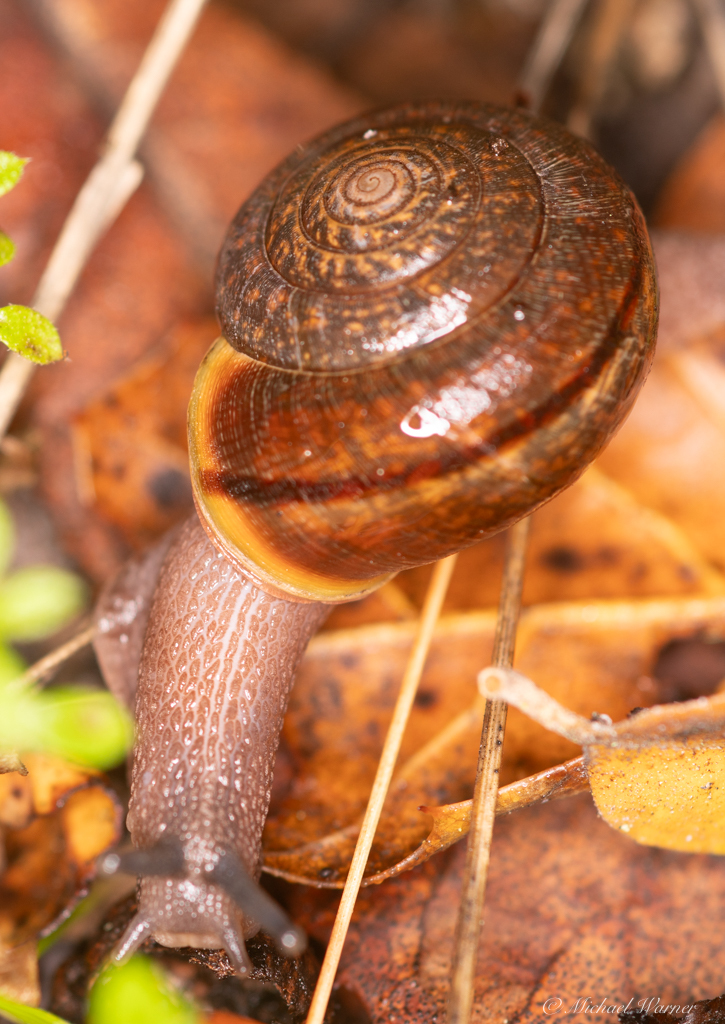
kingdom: Animalia
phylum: Mollusca
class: Gastropoda
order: Stylommatophora
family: Xanthonychidae
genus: Helminthoglypta
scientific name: Helminthoglypta diabloensis
